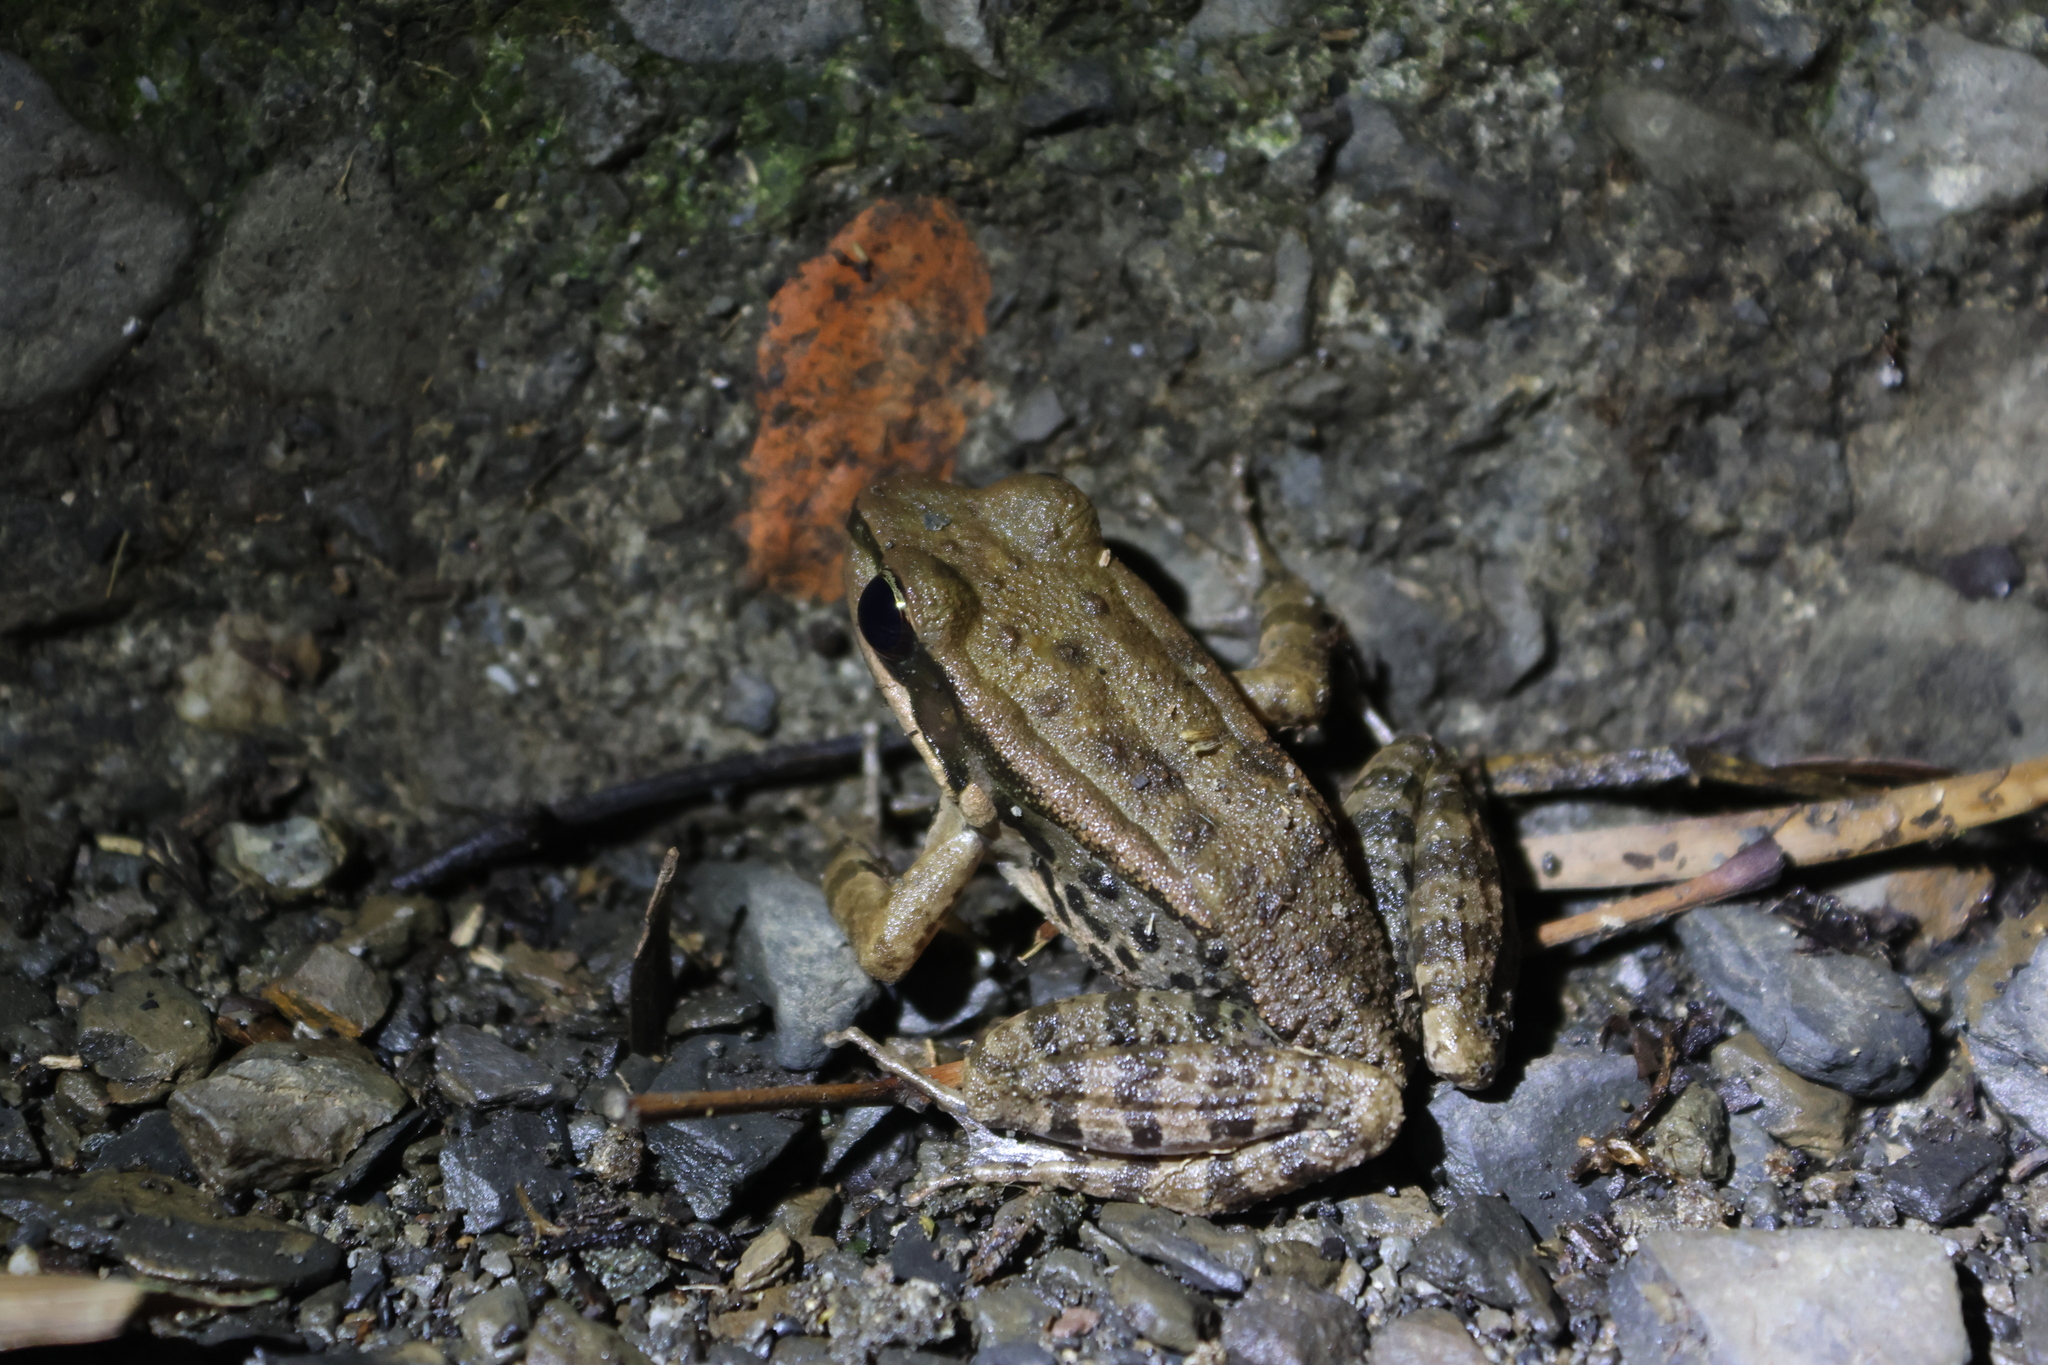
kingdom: Animalia
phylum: Chordata
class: Amphibia
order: Anura
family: Ranidae
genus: Hylarana
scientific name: Hylarana latouchii
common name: Broad-folded frog
